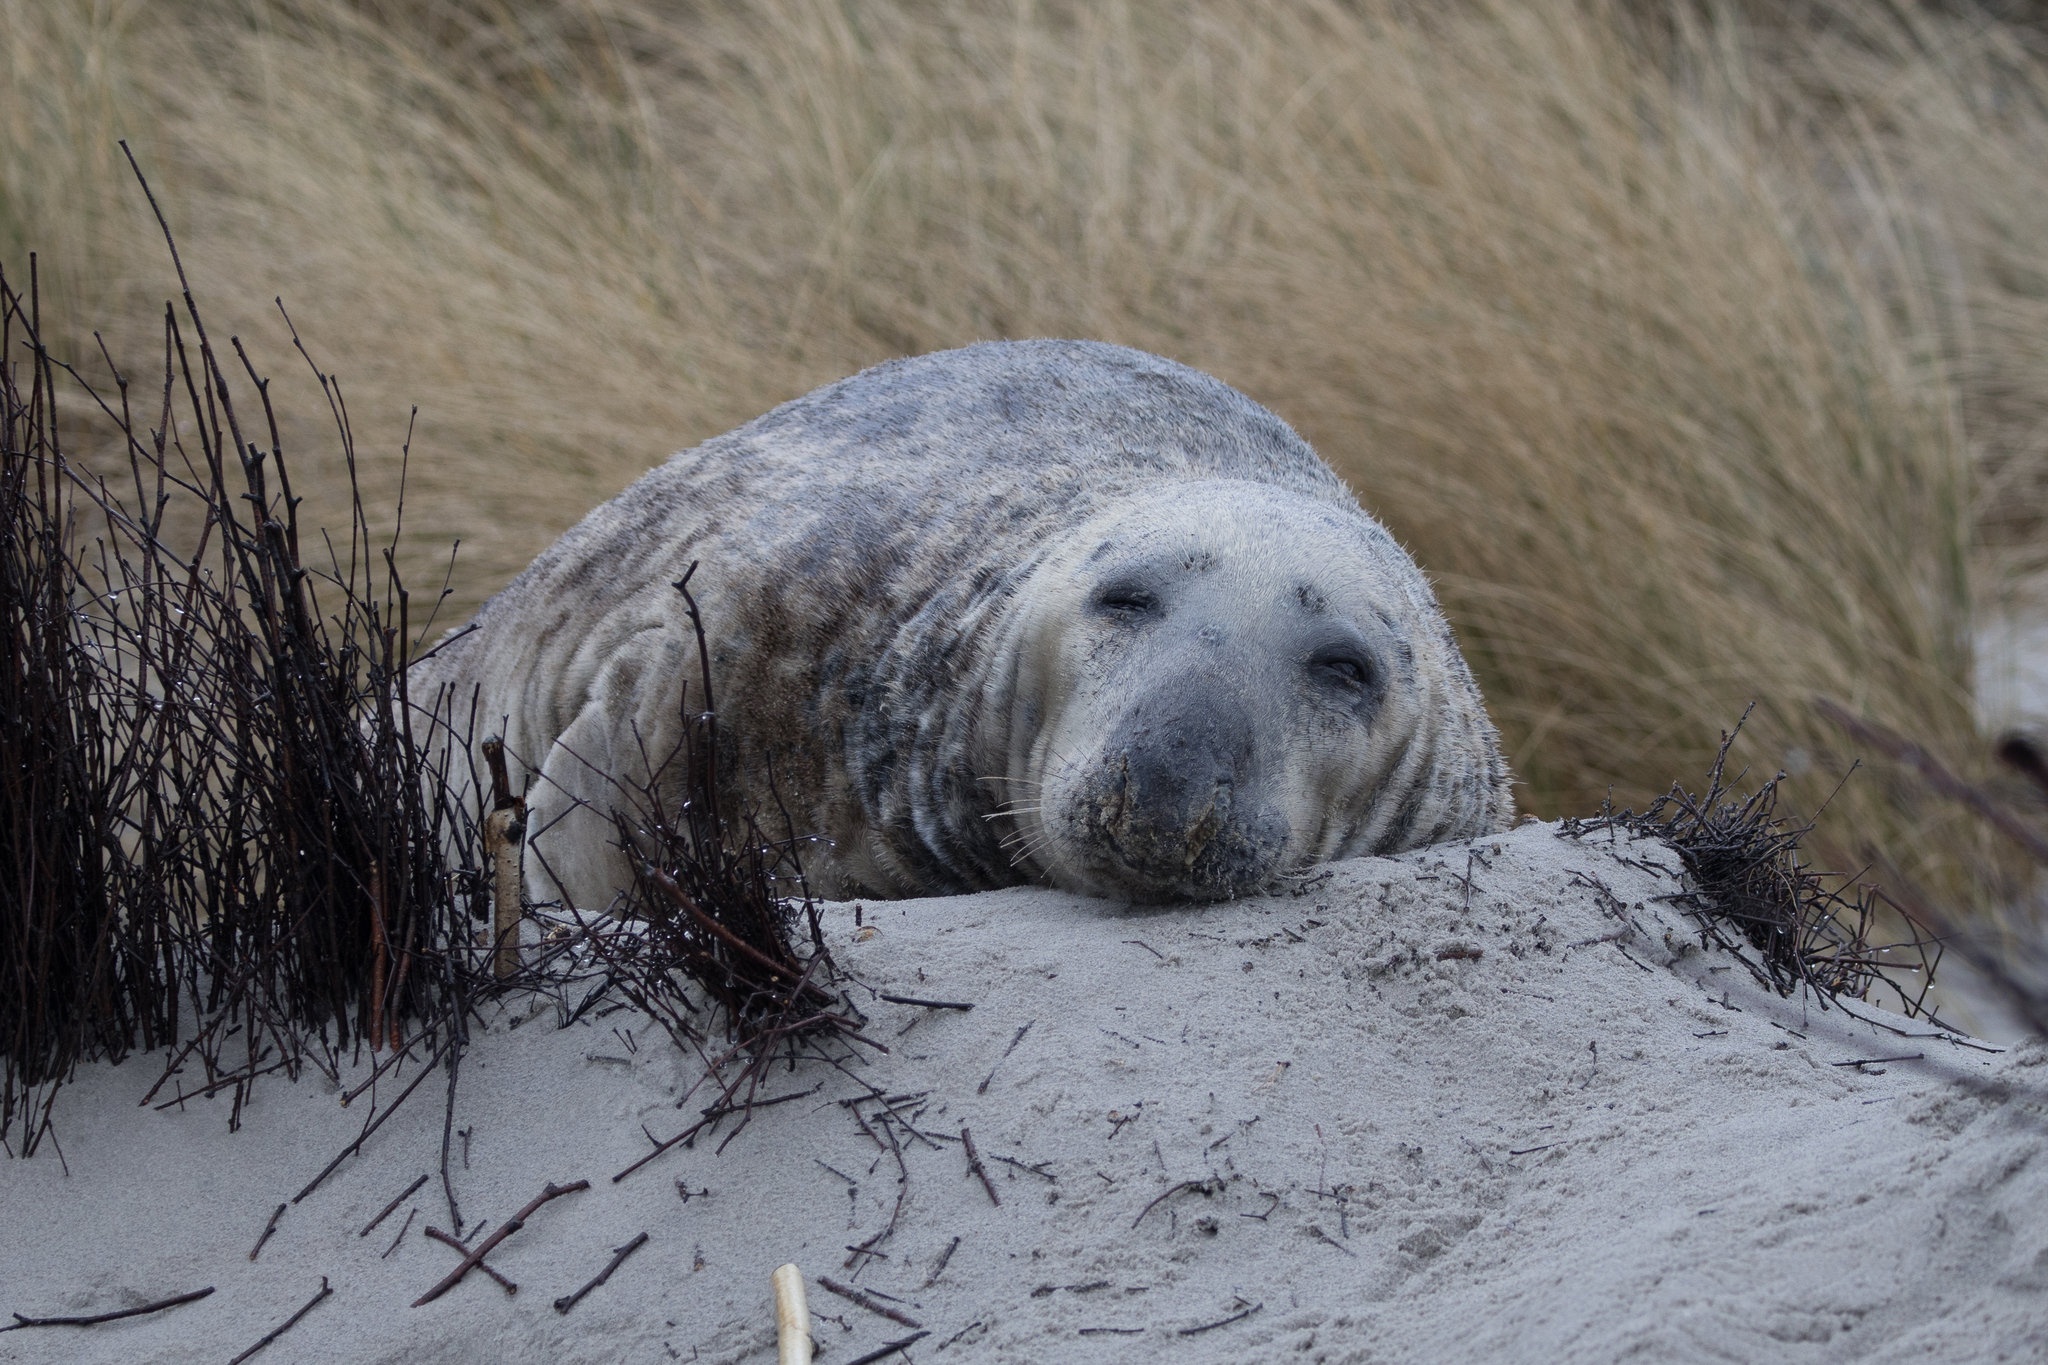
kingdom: Animalia
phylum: Chordata
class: Mammalia
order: Carnivora
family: Phocidae
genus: Halichoerus
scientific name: Halichoerus grypus
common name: Grey seal
